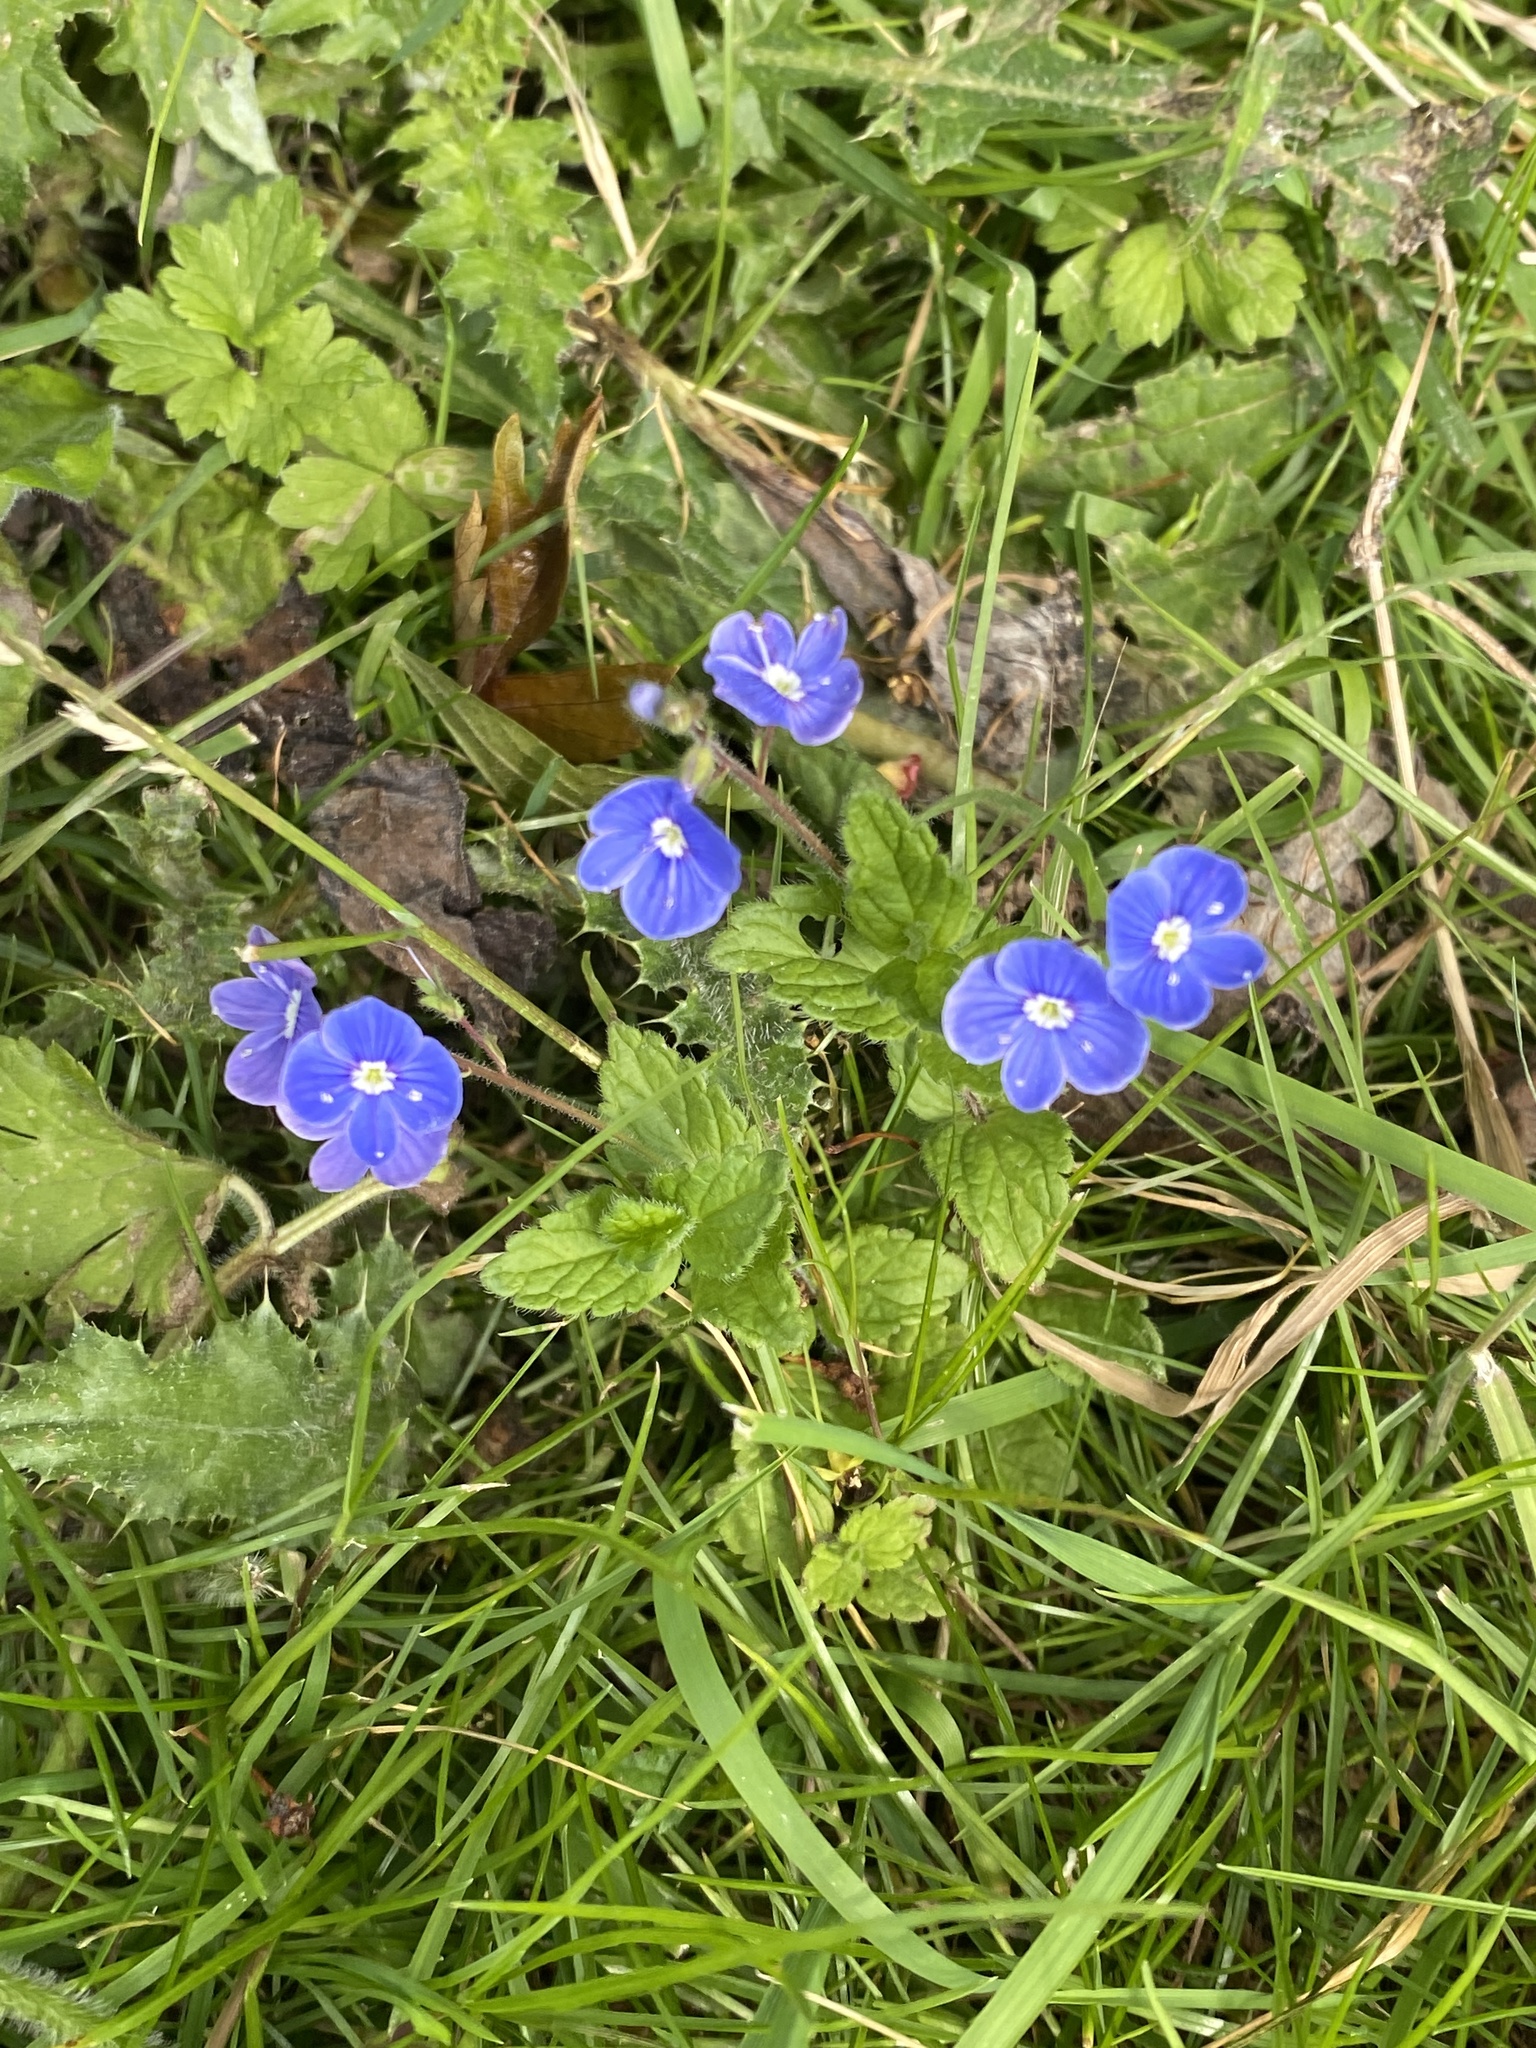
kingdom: Plantae
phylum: Tracheophyta
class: Magnoliopsida
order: Lamiales
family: Plantaginaceae
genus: Veronica
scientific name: Veronica chamaedrys
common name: Germander speedwell
